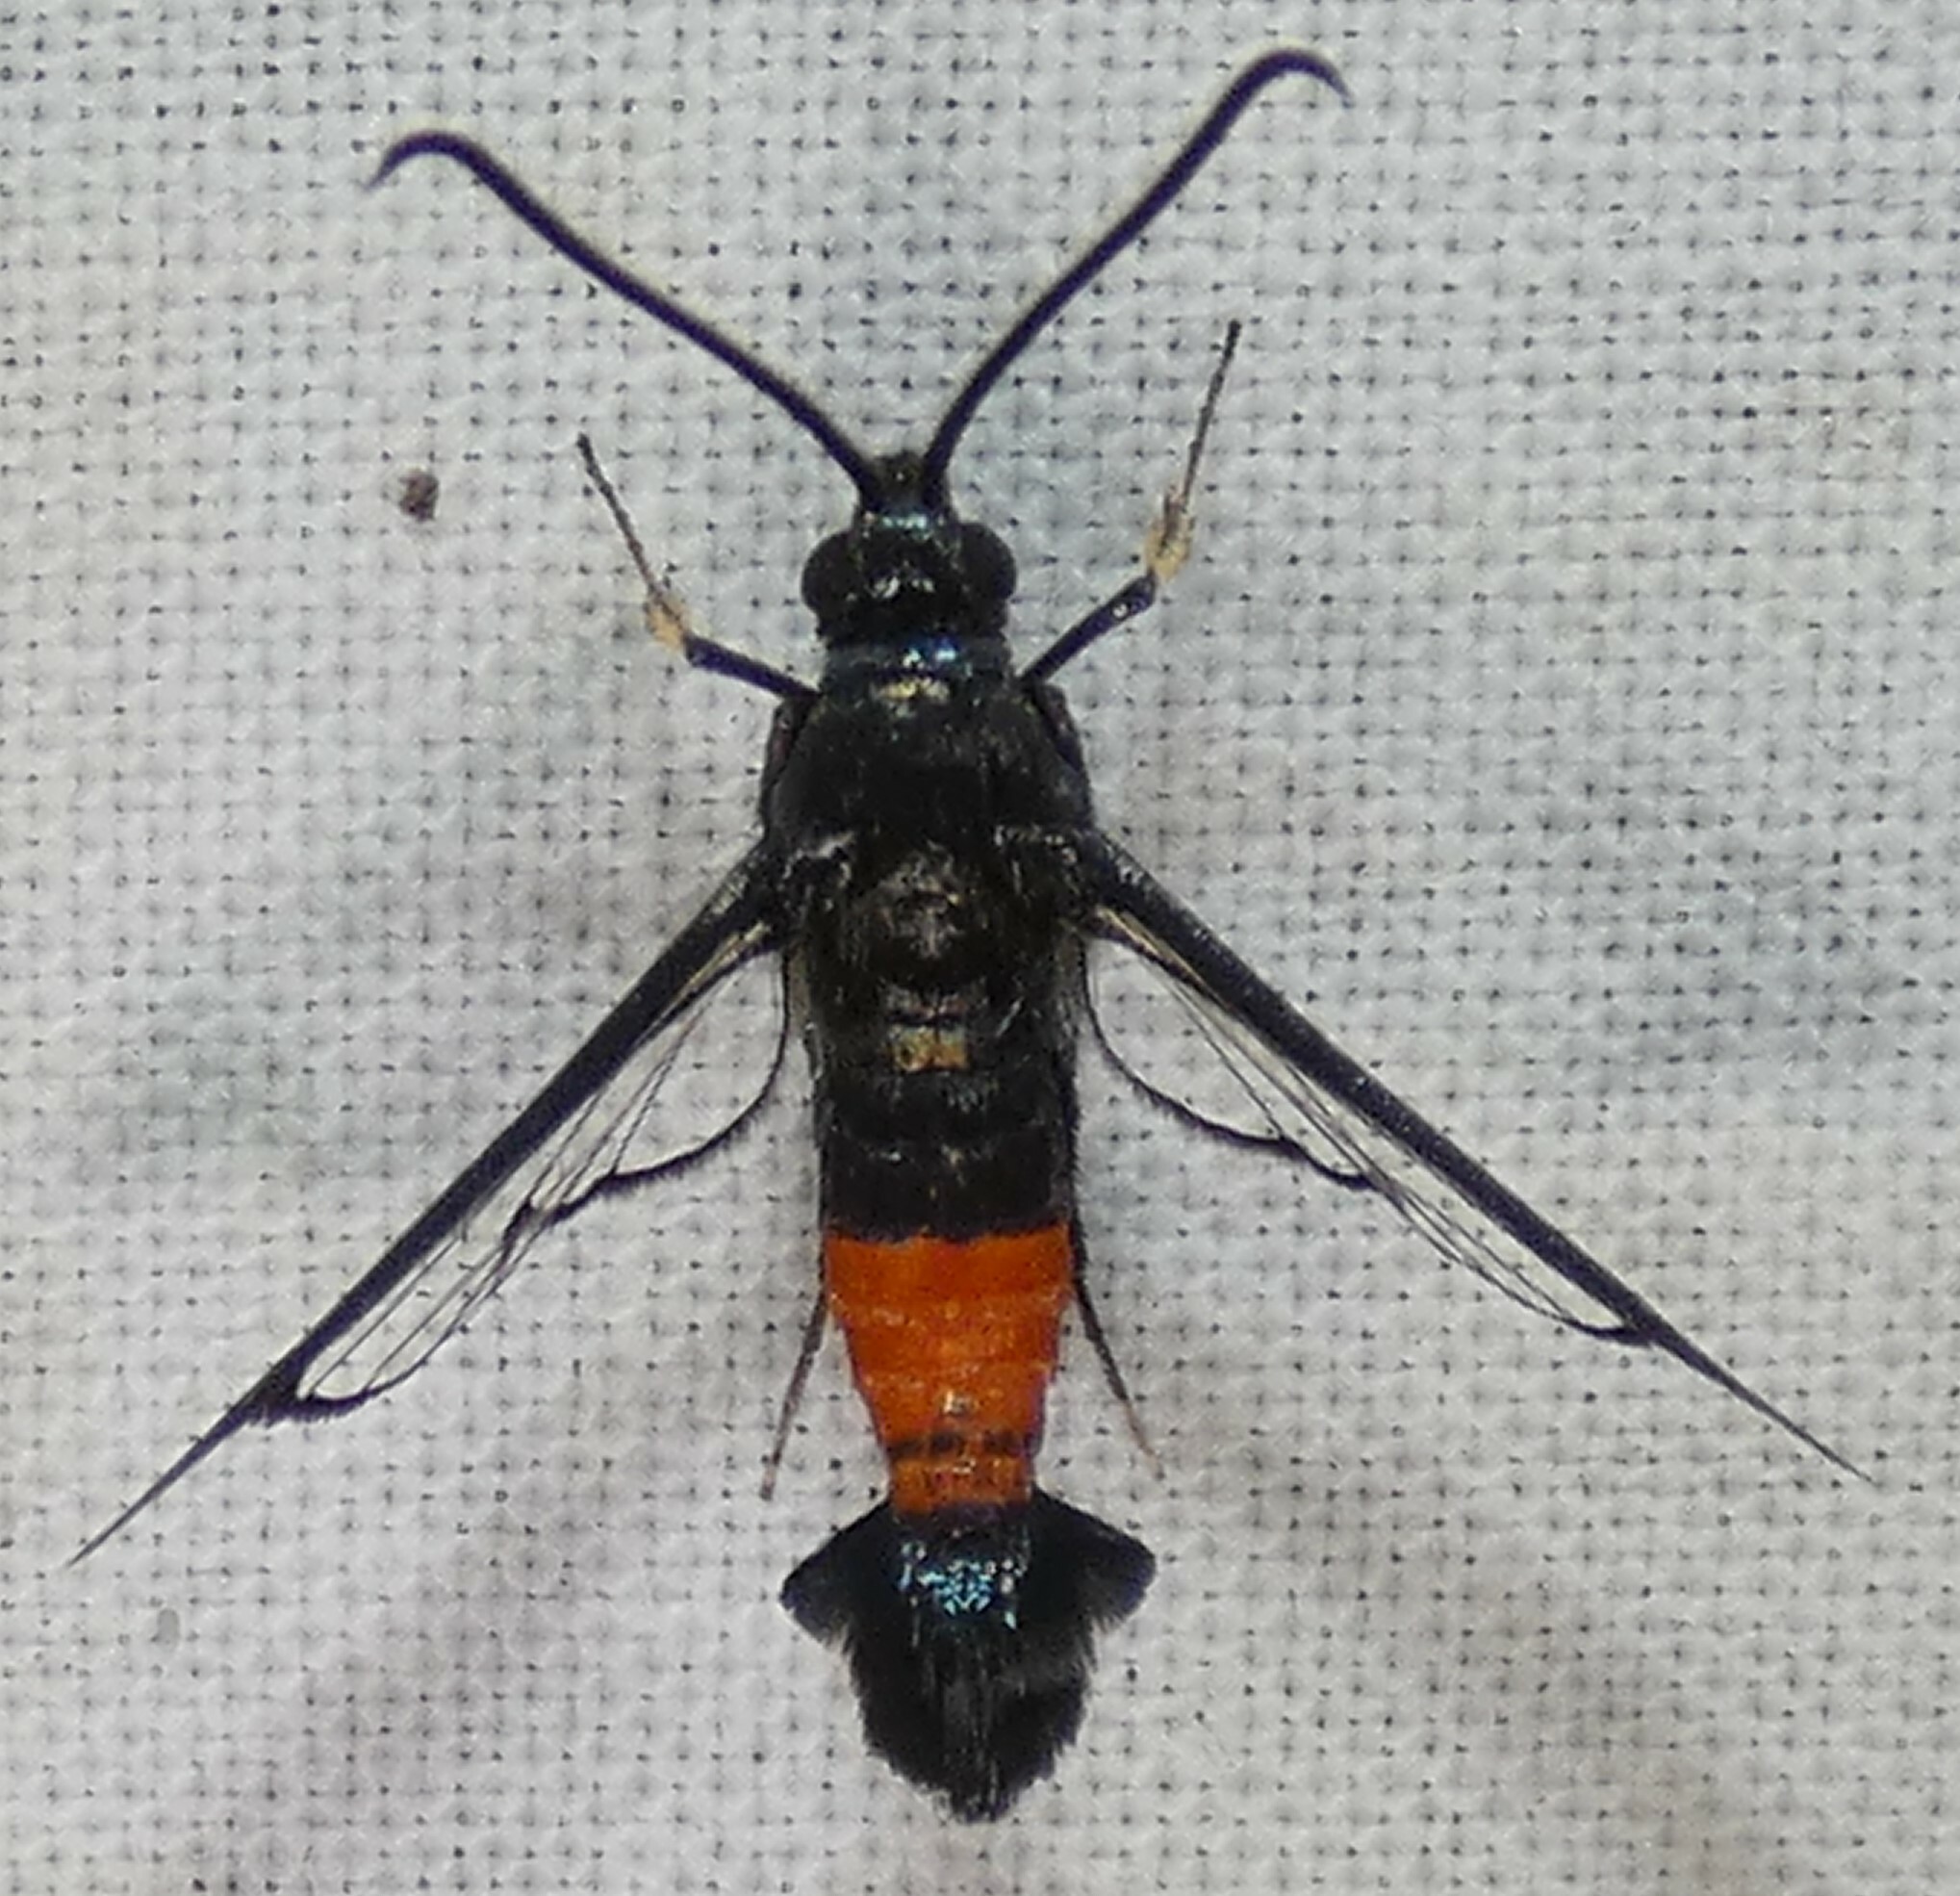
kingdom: Animalia
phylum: Arthropoda
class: Insecta
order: Lepidoptera
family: Sesiidae
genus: Synanthedon
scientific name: Synanthedon rubrofascia
